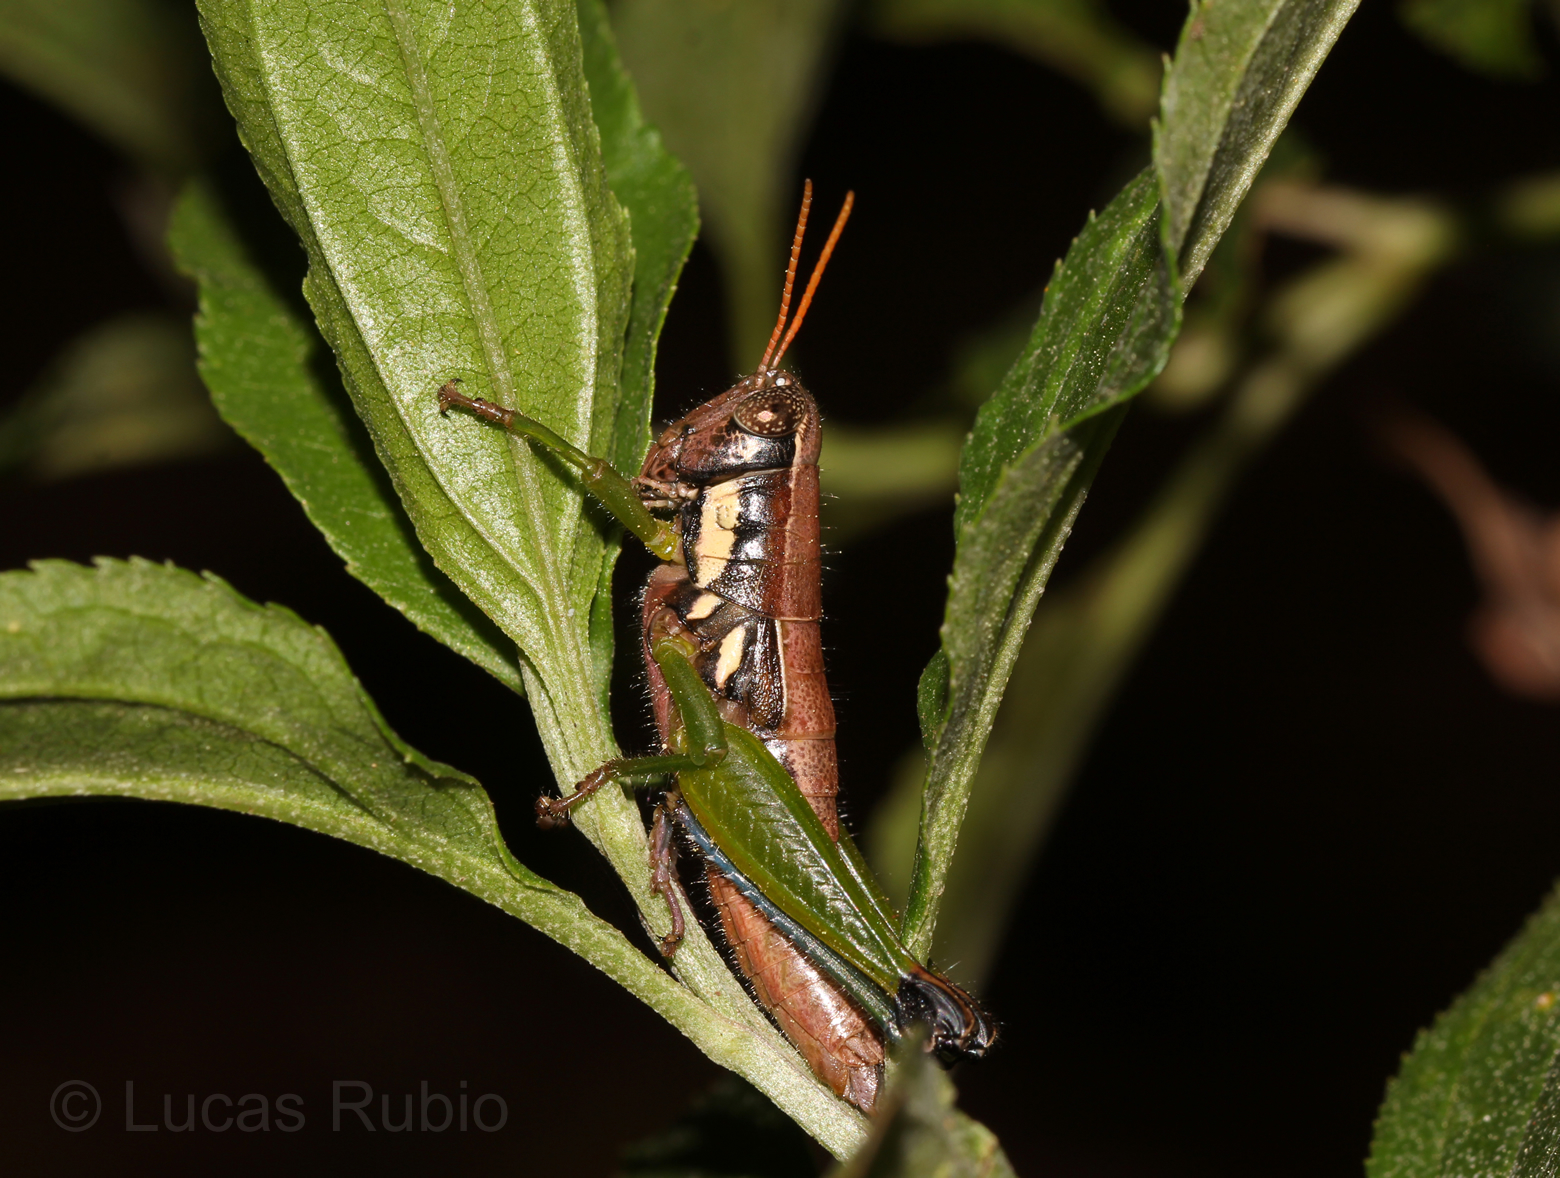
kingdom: Animalia
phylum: Arthropoda
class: Insecta
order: Orthoptera
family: Acrididae
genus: Pseudoscopas
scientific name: Pseudoscopas nigrigena
